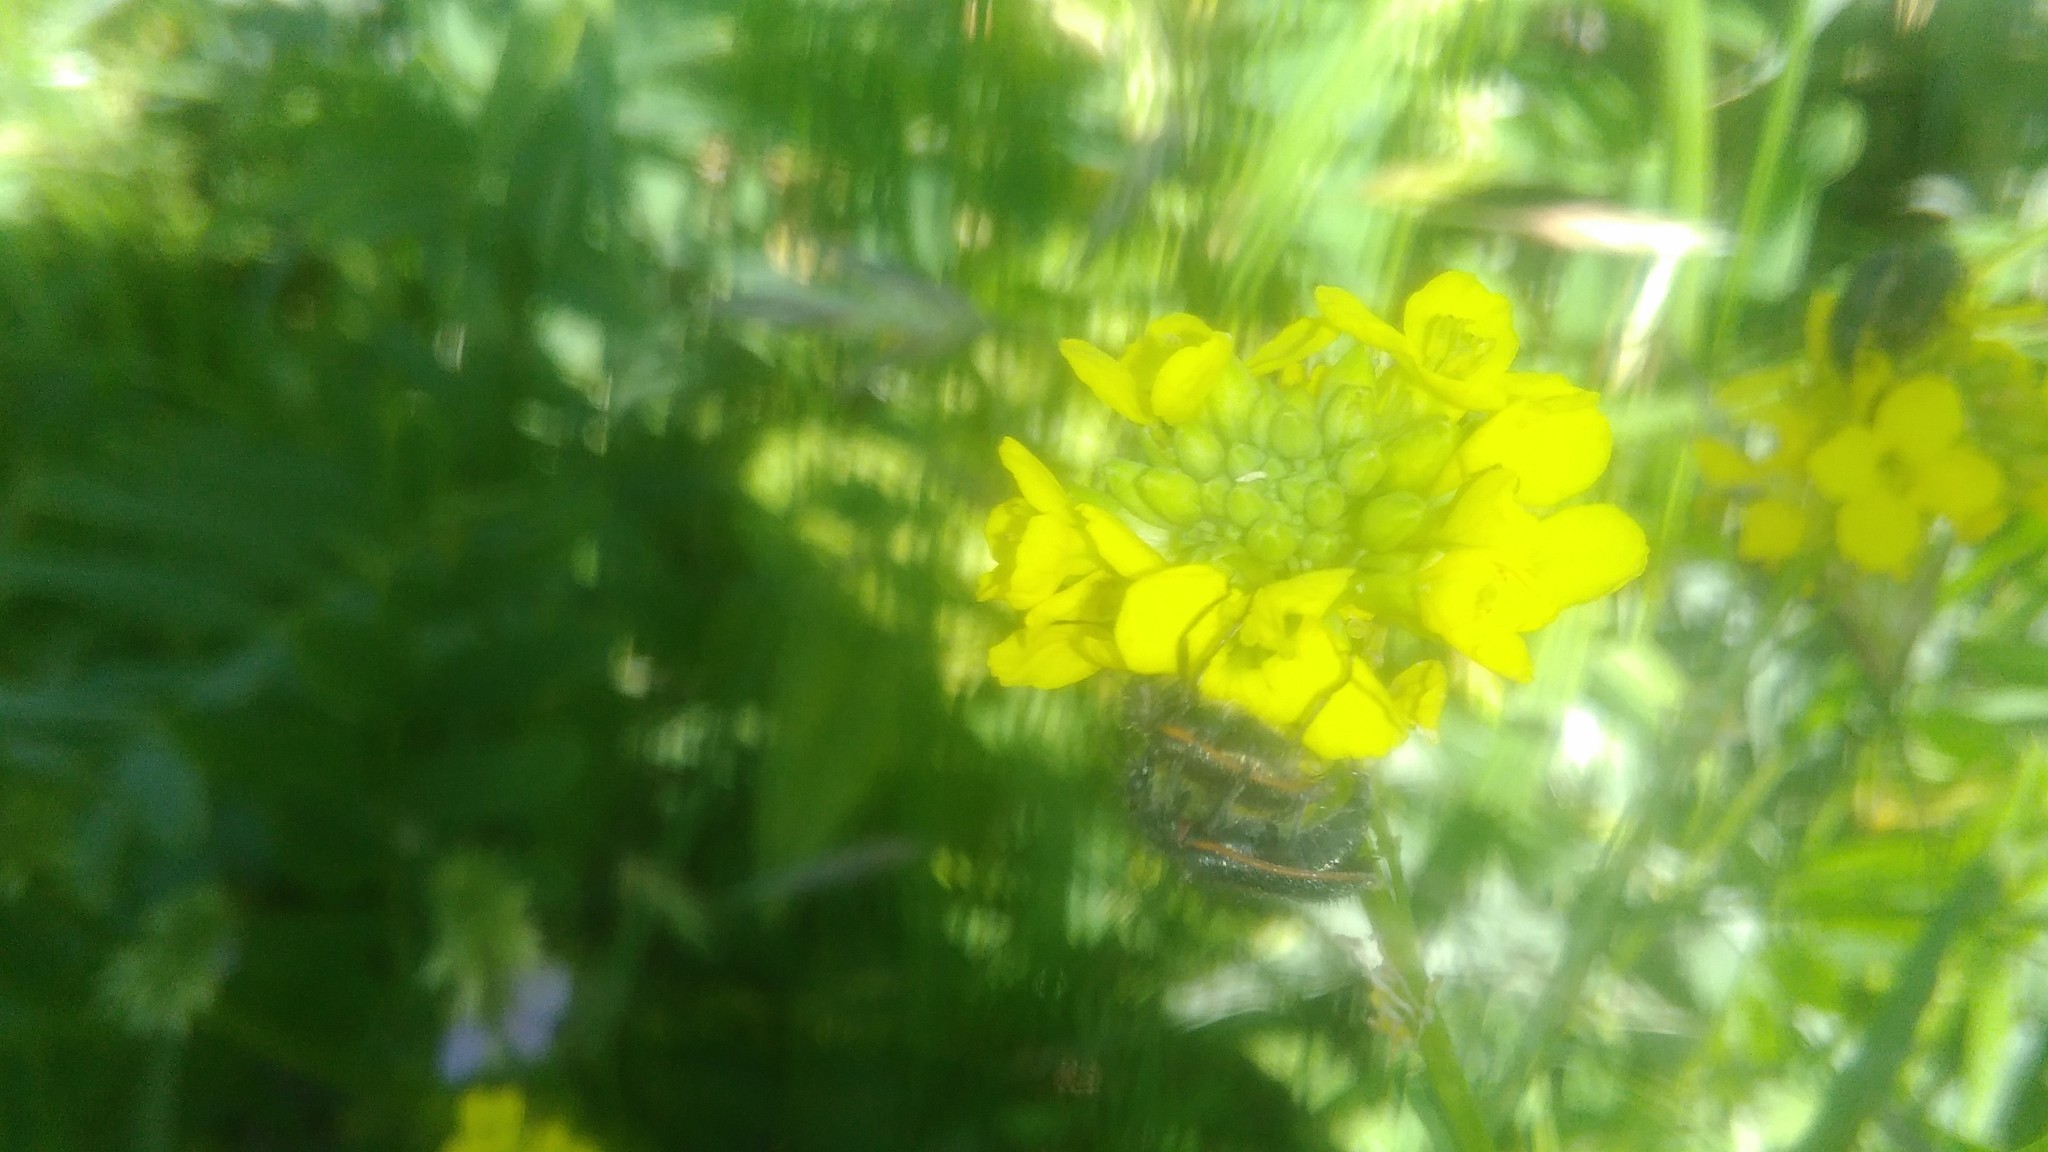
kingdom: Animalia
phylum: Arthropoda
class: Insecta
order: Coleoptera
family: Melyridae
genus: Astylus
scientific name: Astylus
